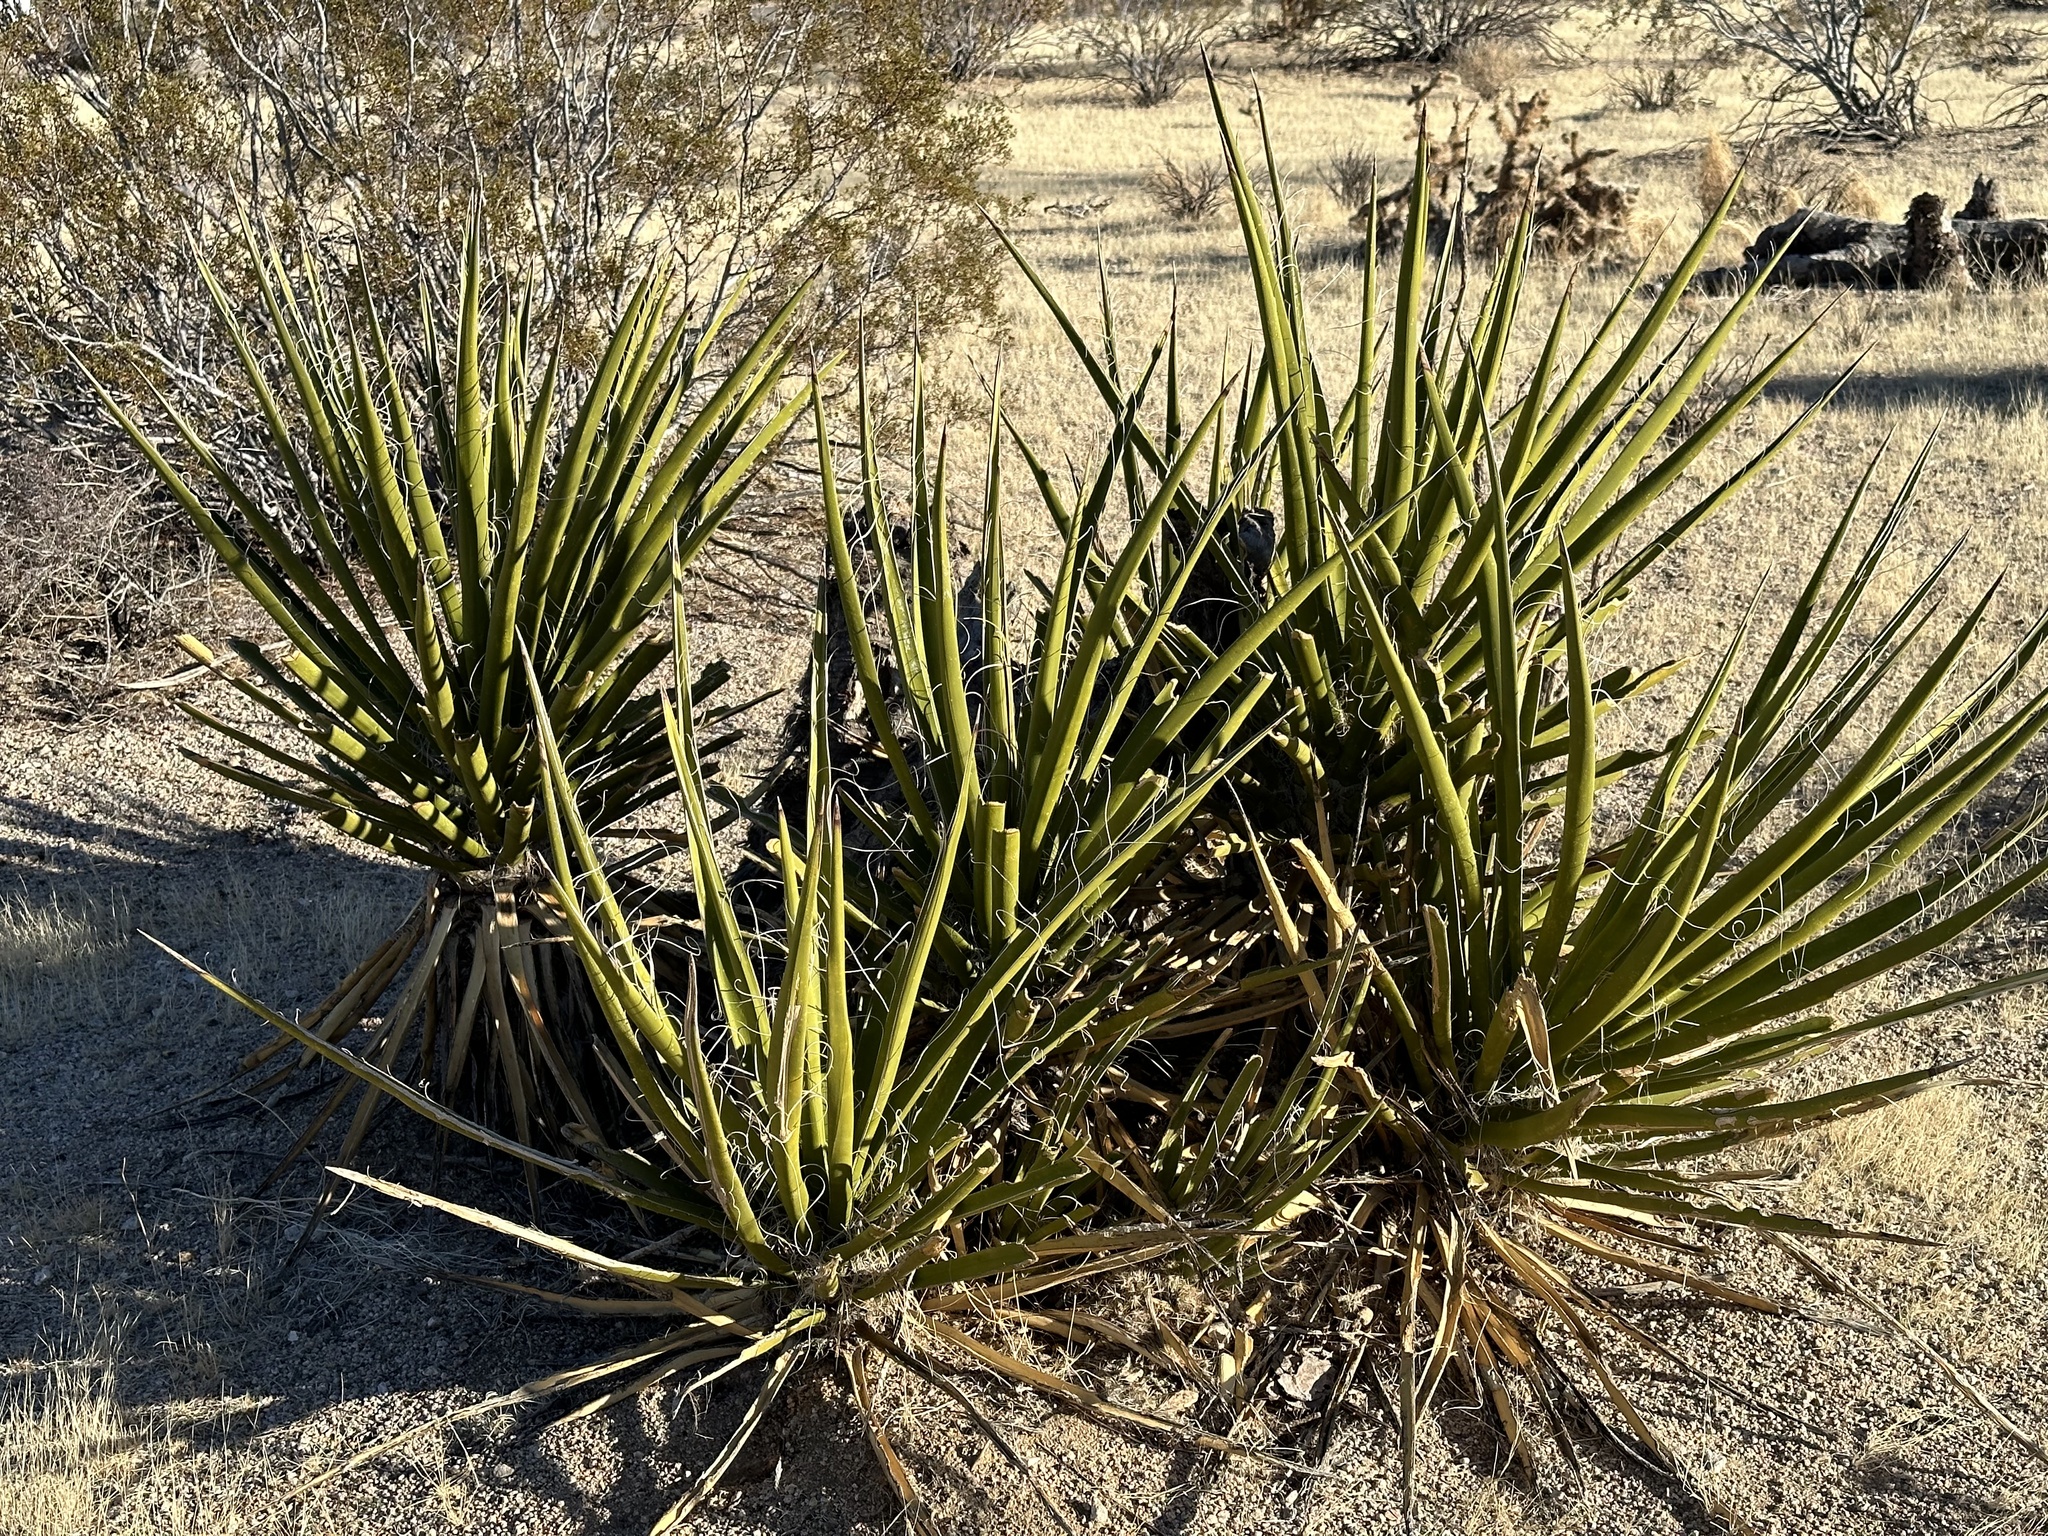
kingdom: Plantae
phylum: Tracheophyta
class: Liliopsida
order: Asparagales
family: Asparagaceae
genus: Yucca
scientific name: Yucca schidigera
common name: Mojave yucca
